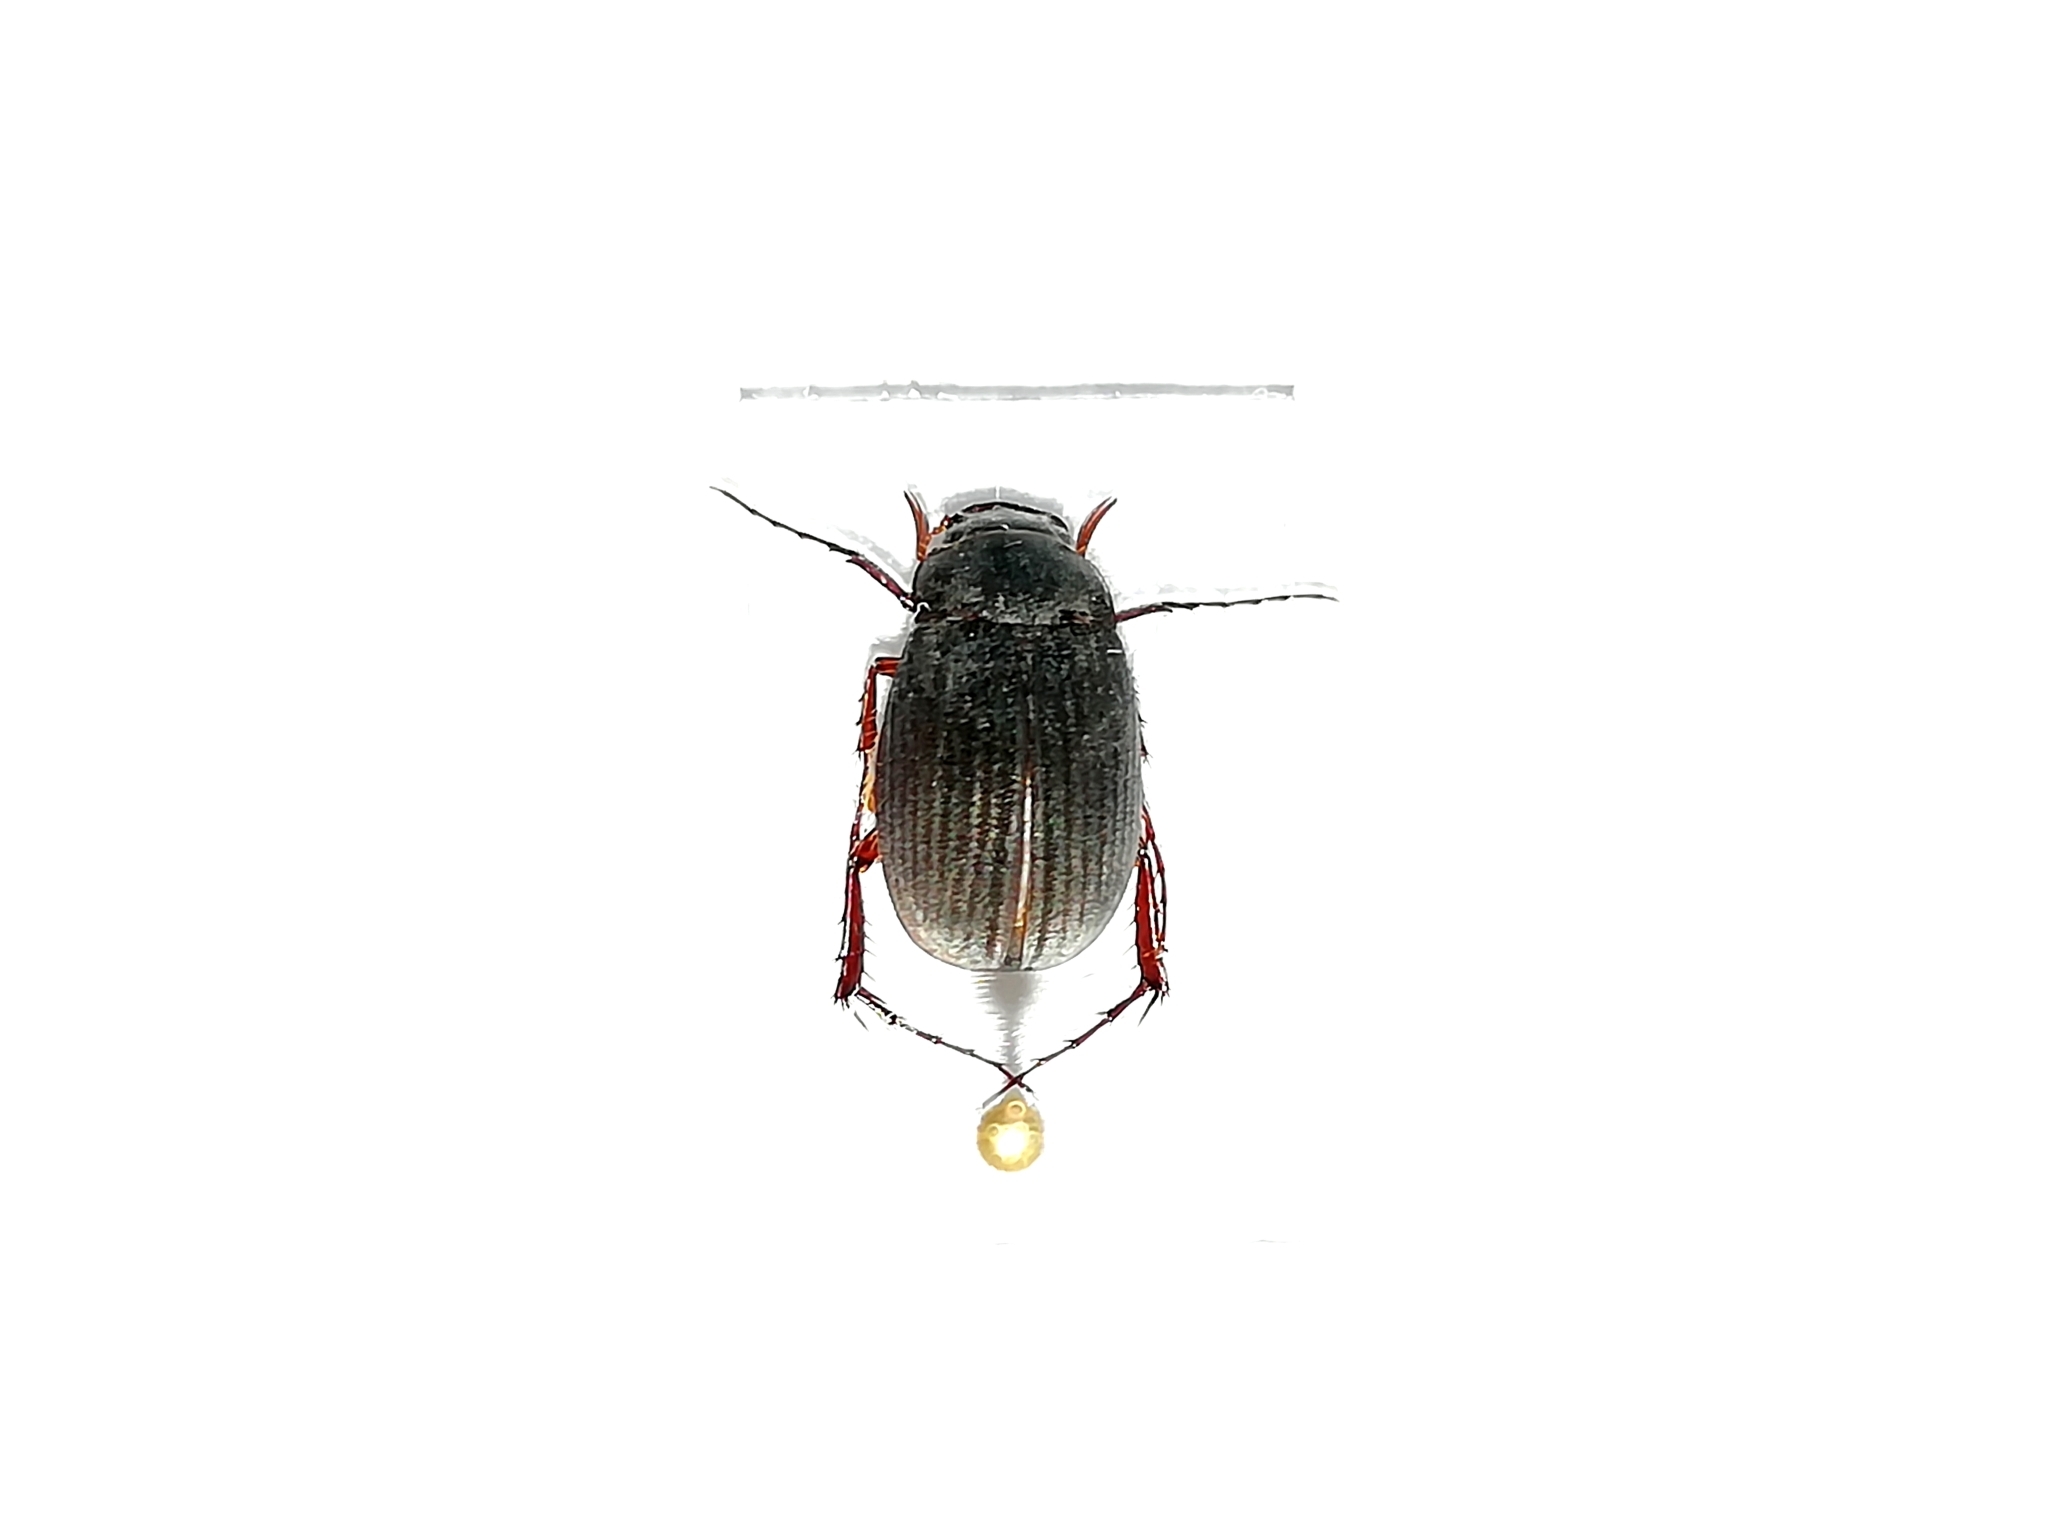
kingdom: Animalia
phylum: Arthropoda
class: Insecta
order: Coleoptera
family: Scarabaeidae
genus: Maladera
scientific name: Maladera holosericea
